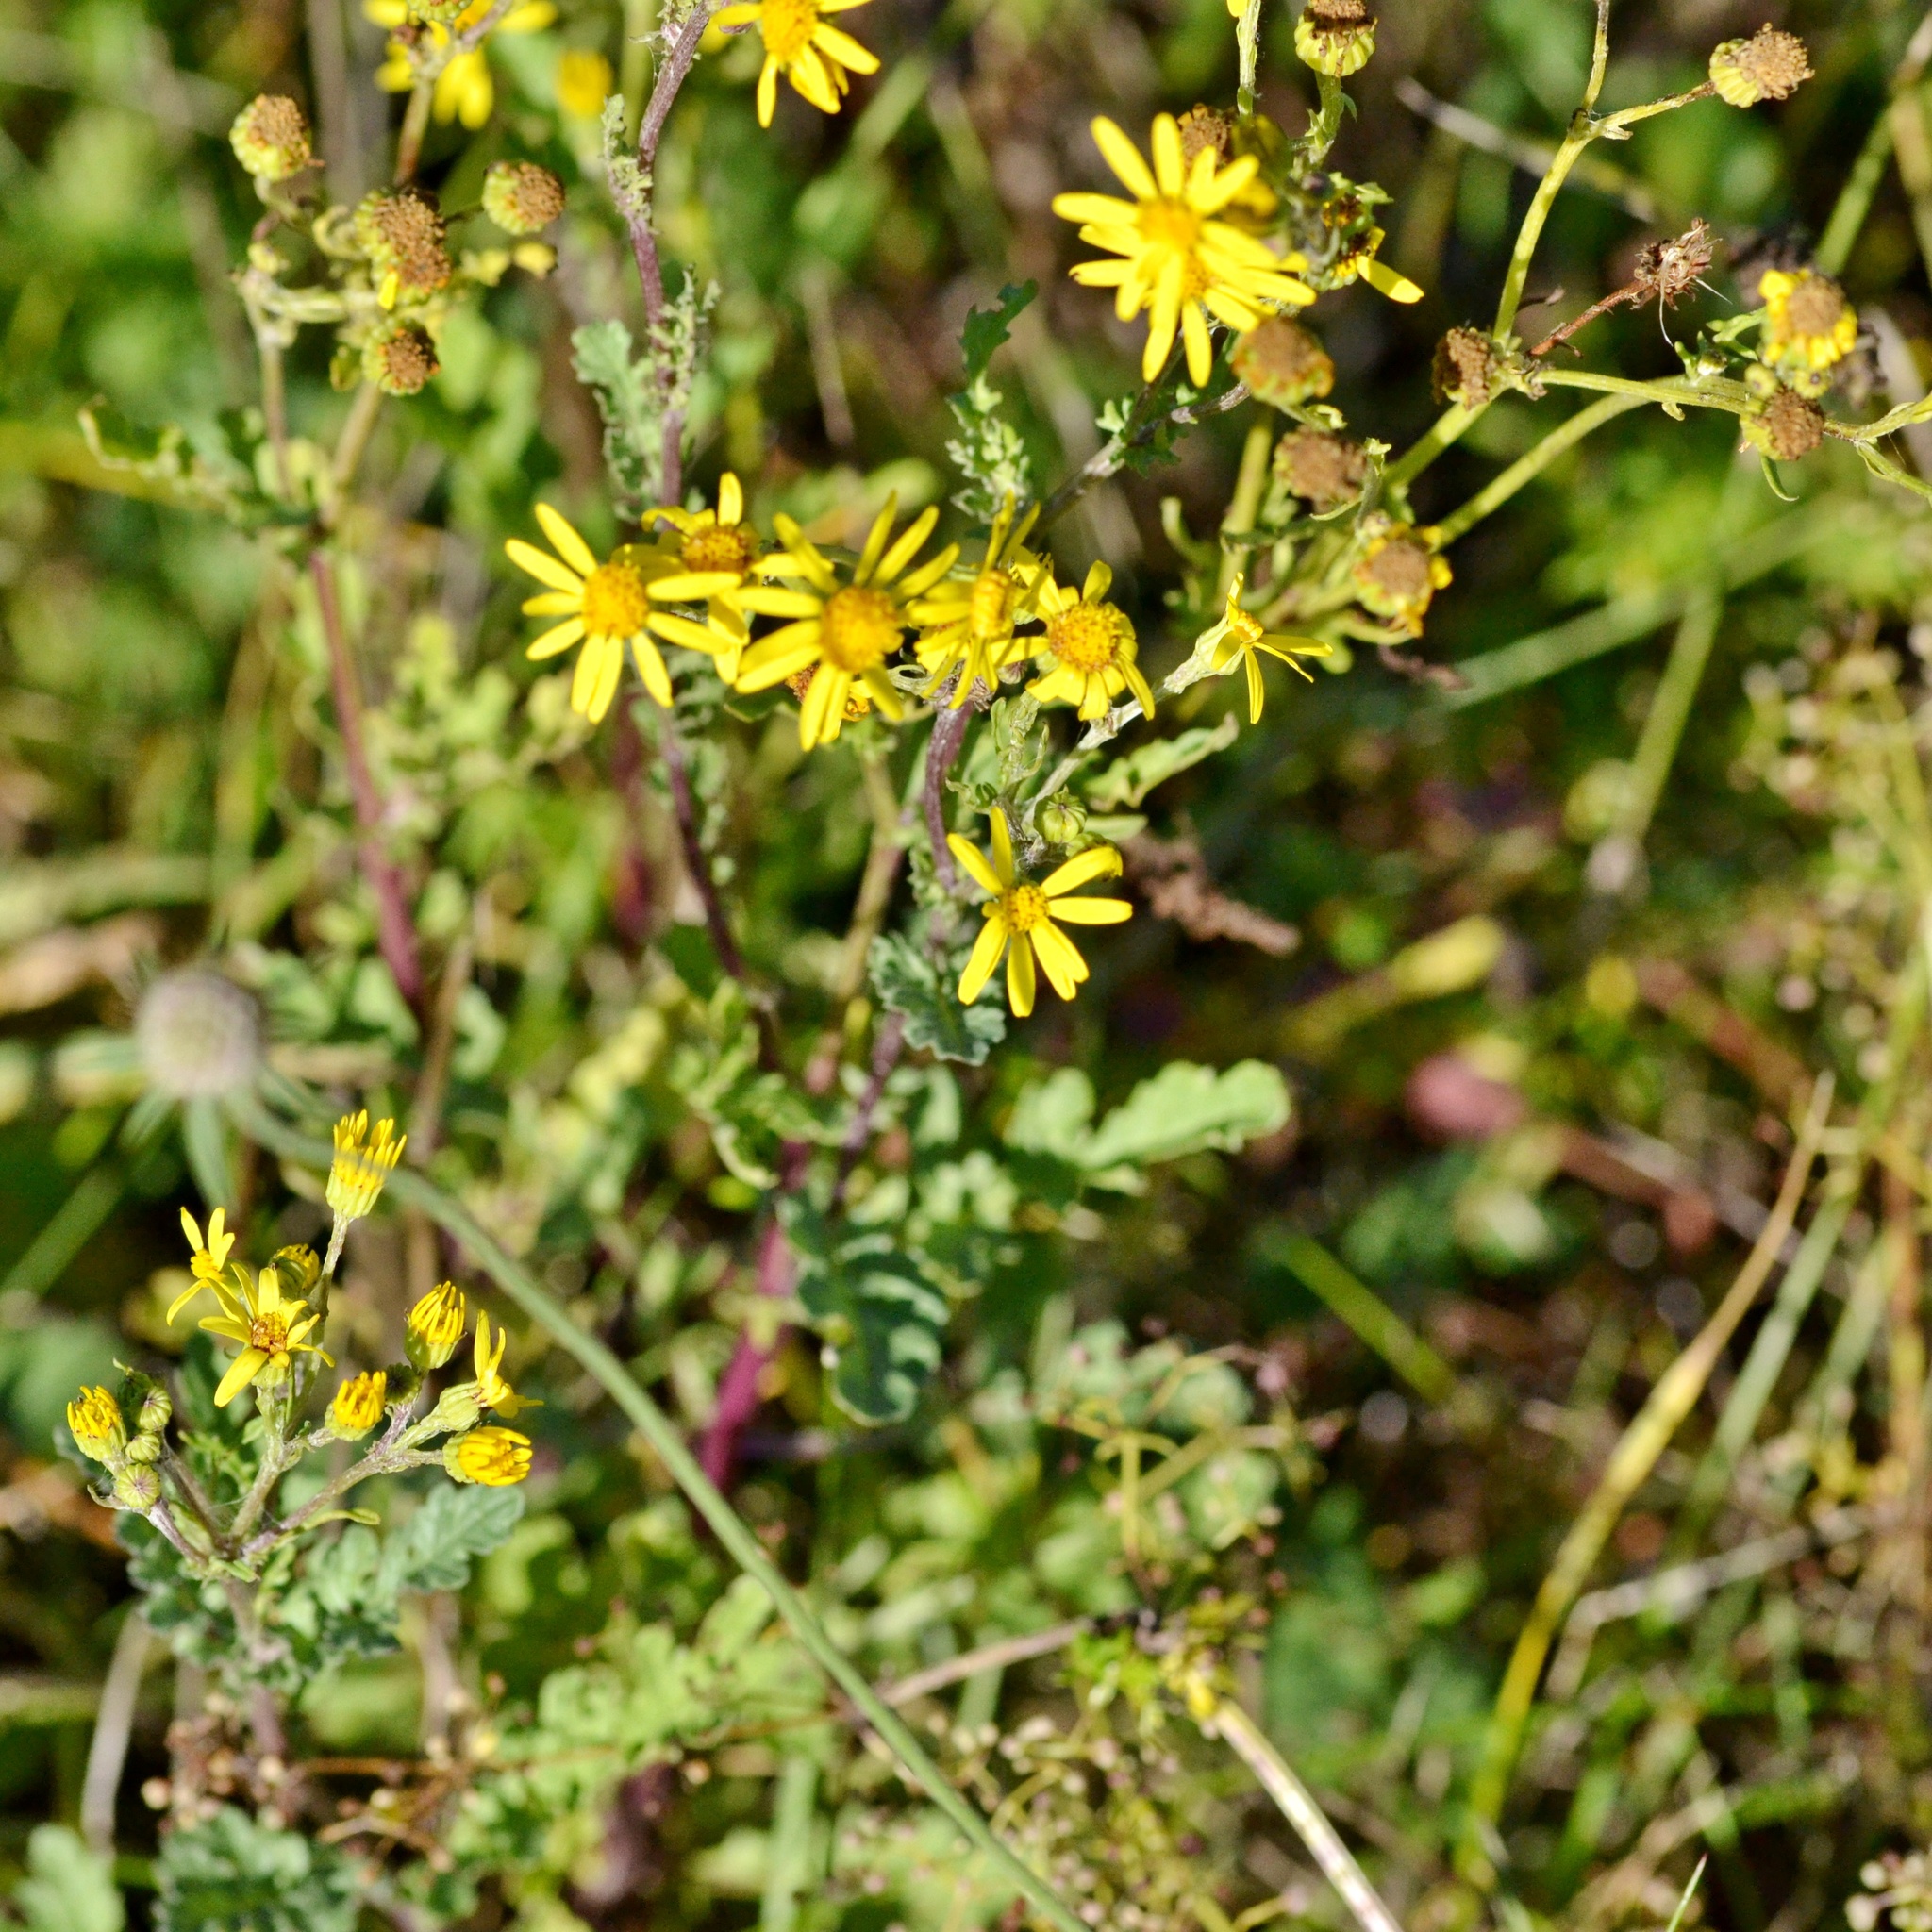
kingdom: Plantae
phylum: Tracheophyta
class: Magnoliopsida
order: Asterales
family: Asteraceae
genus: Jacobaea
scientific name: Jacobaea vulgaris
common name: Stinking willie
